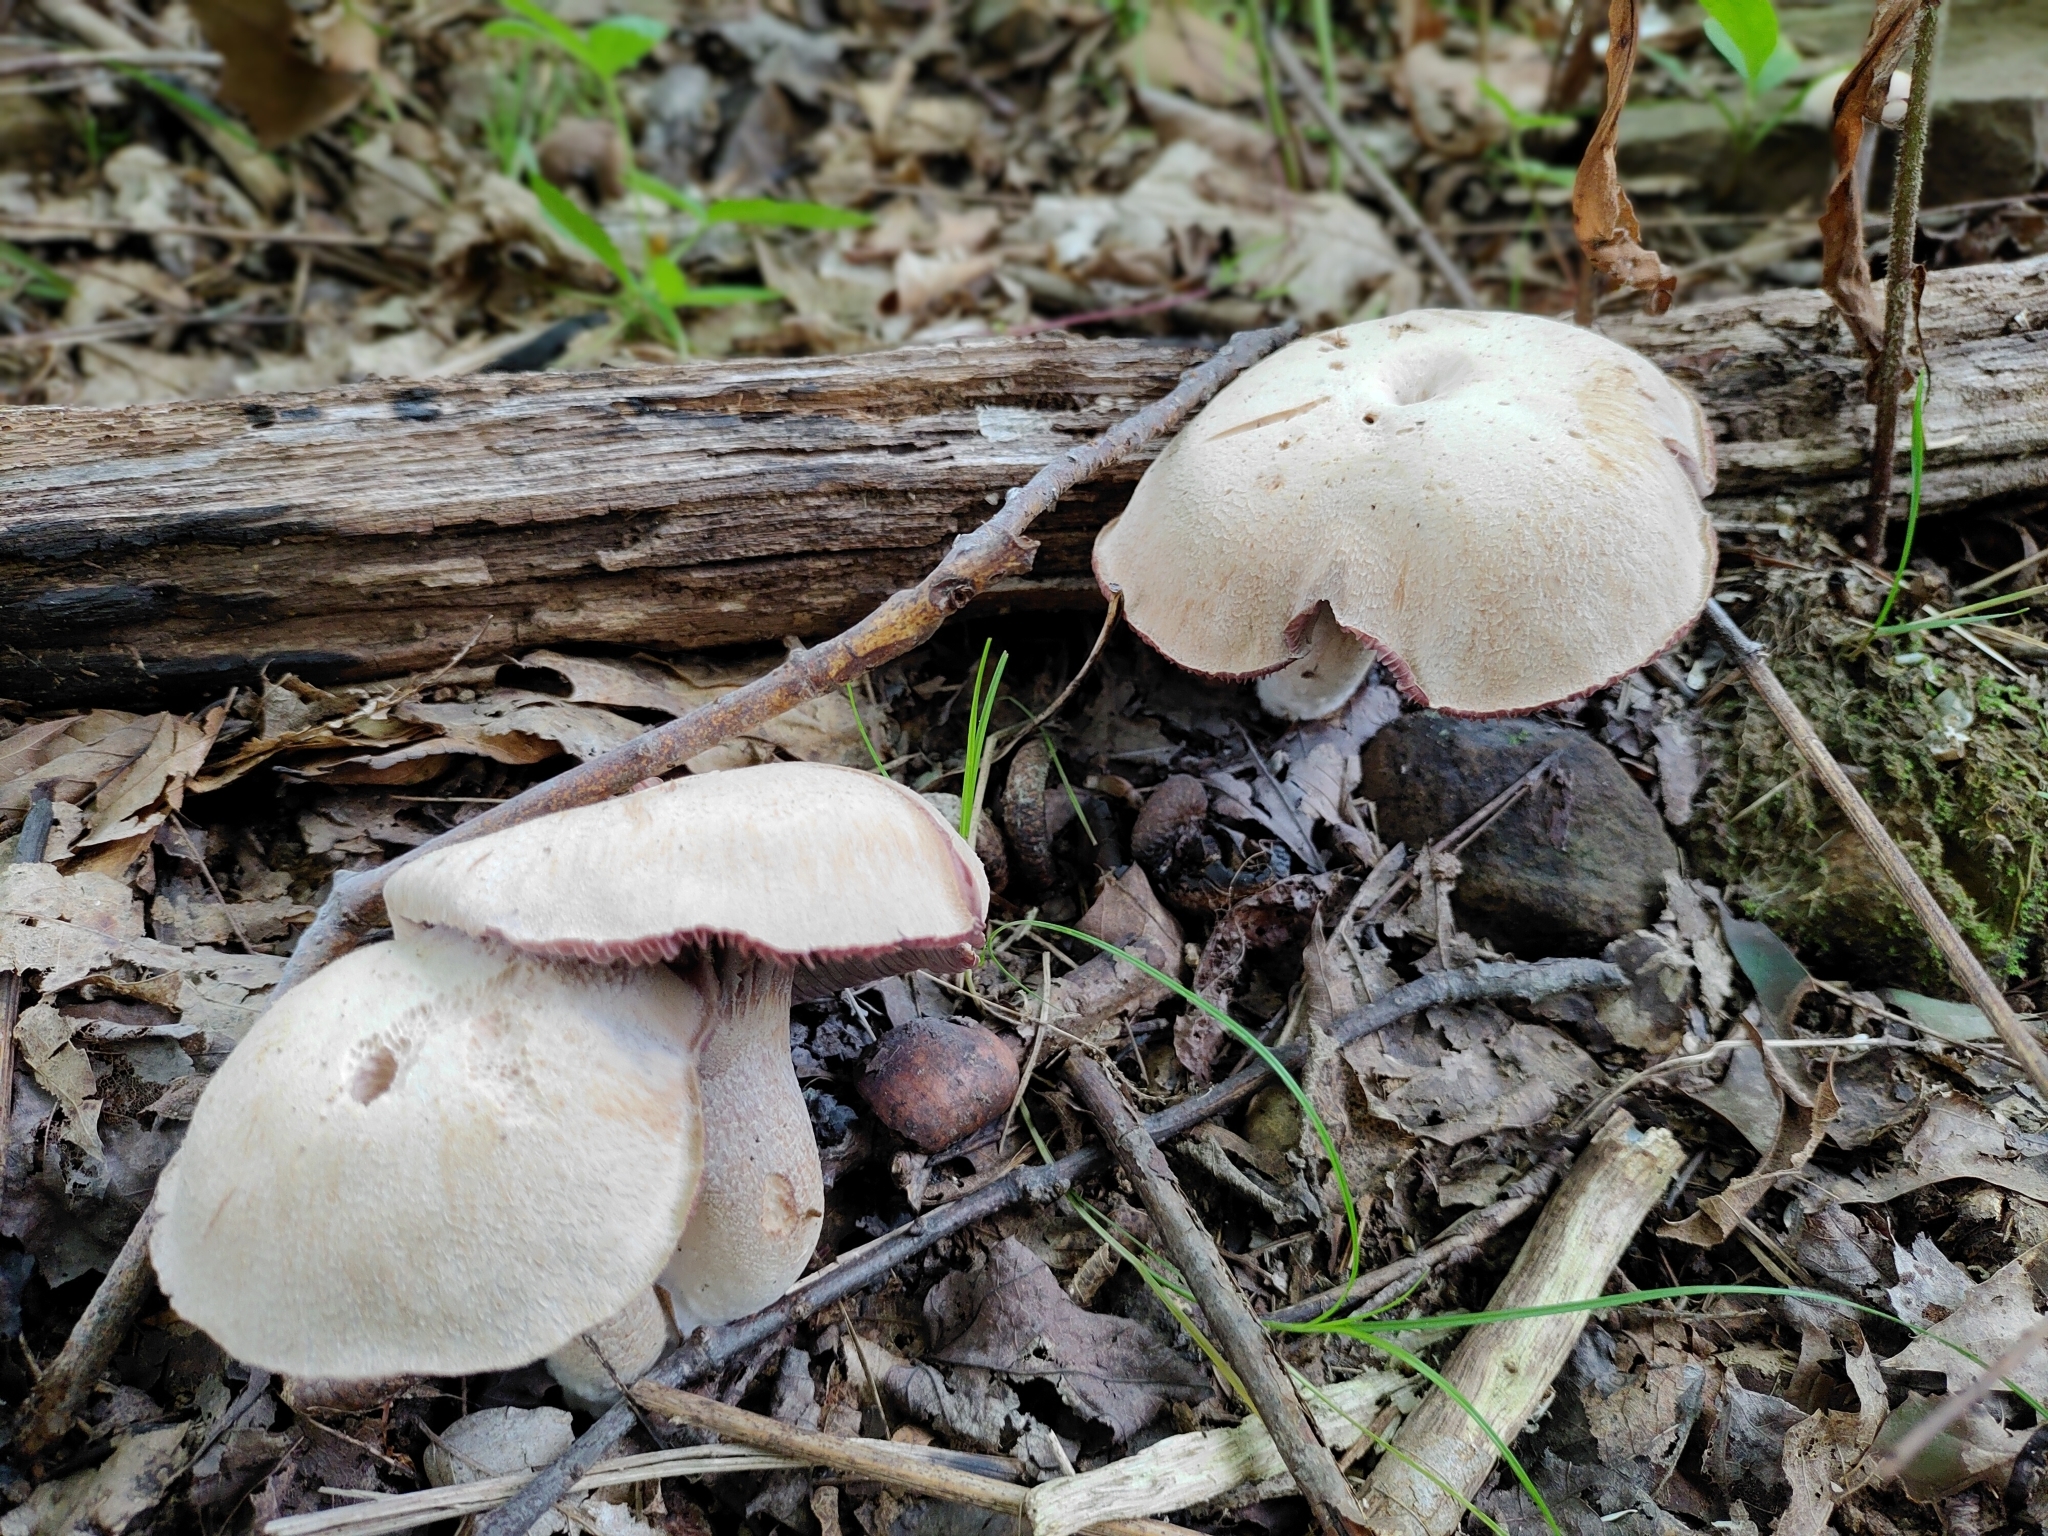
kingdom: Fungi
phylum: Basidiomycota
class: Agaricomycetes
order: Agaricales
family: Hydnangiaceae
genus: Laccaria
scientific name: Laccaria ochropurpurea
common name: Purple laccaria
